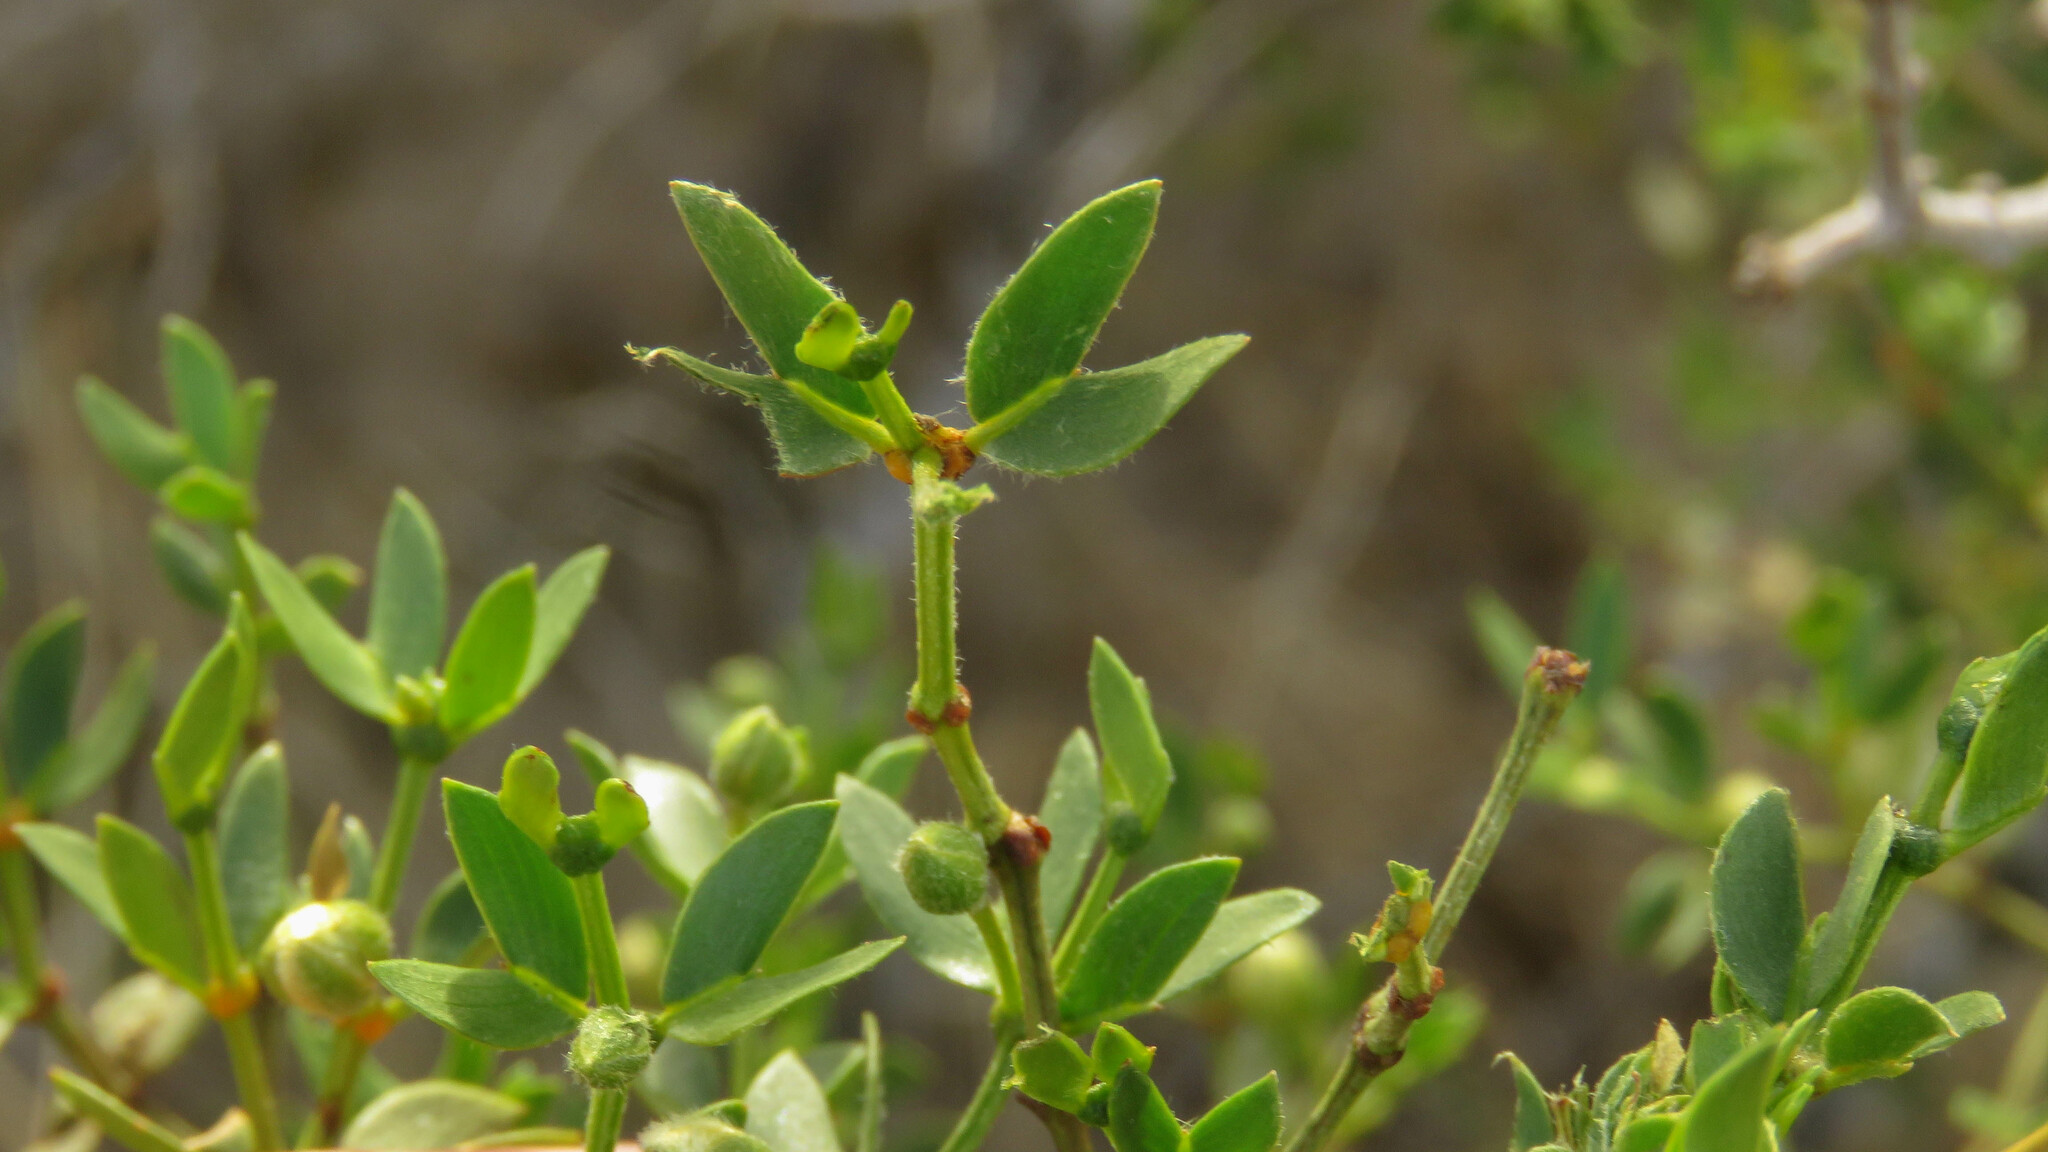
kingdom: Plantae
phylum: Tracheophyta
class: Magnoliopsida
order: Zygophyllales
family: Zygophyllaceae
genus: Larrea
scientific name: Larrea divaricata
